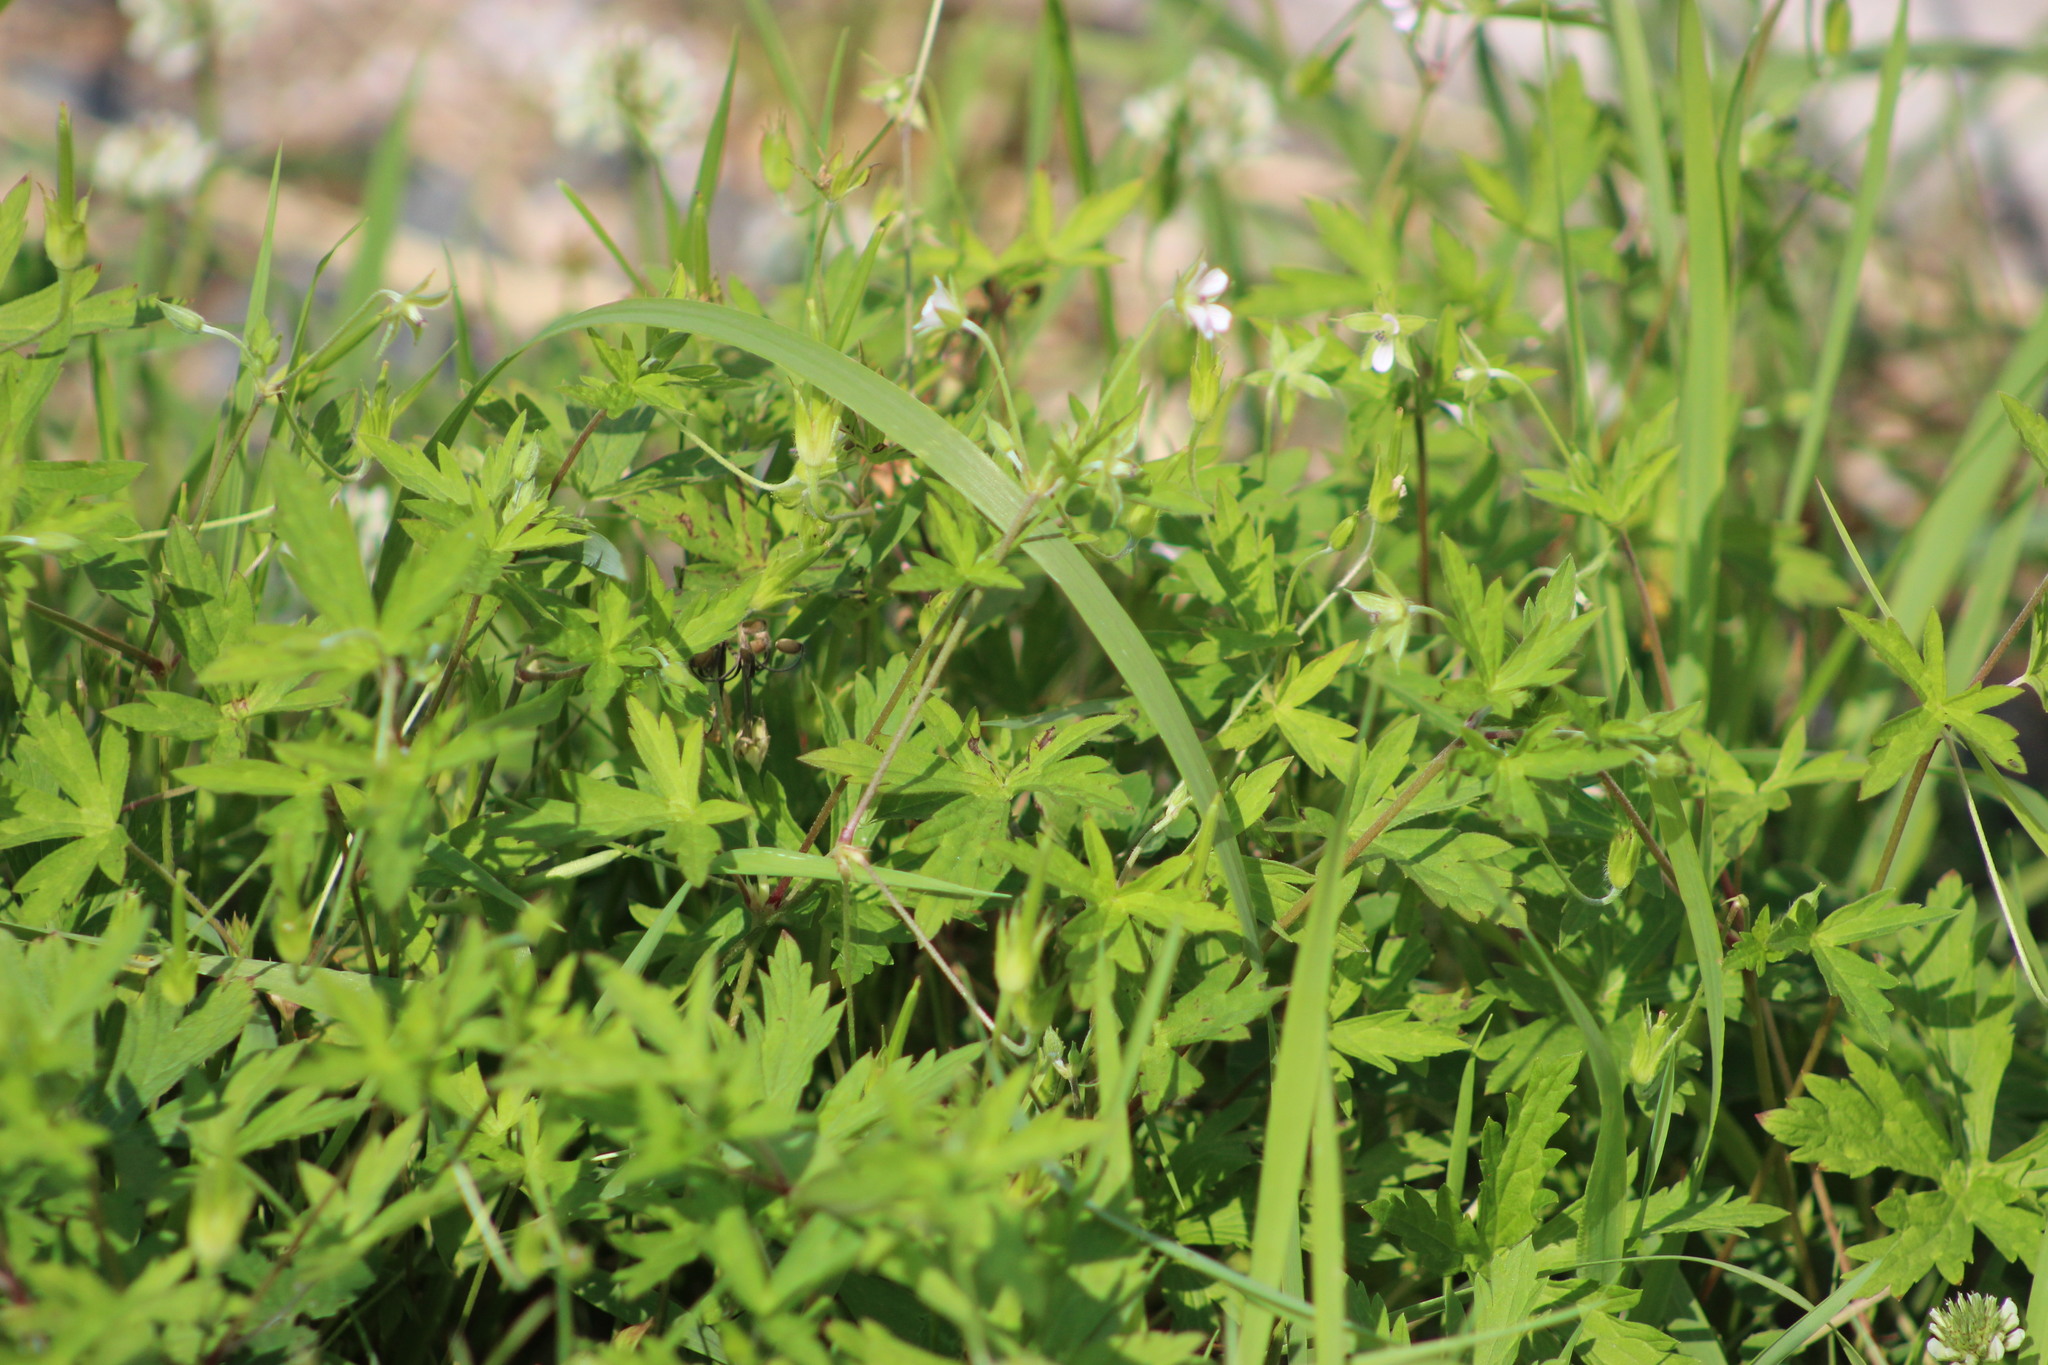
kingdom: Plantae
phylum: Tracheophyta
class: Magnoliopsida
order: Geraniales
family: Geraniaceae
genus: Geranium
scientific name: Geranium sibiricum
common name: Siberian crane's-bill
